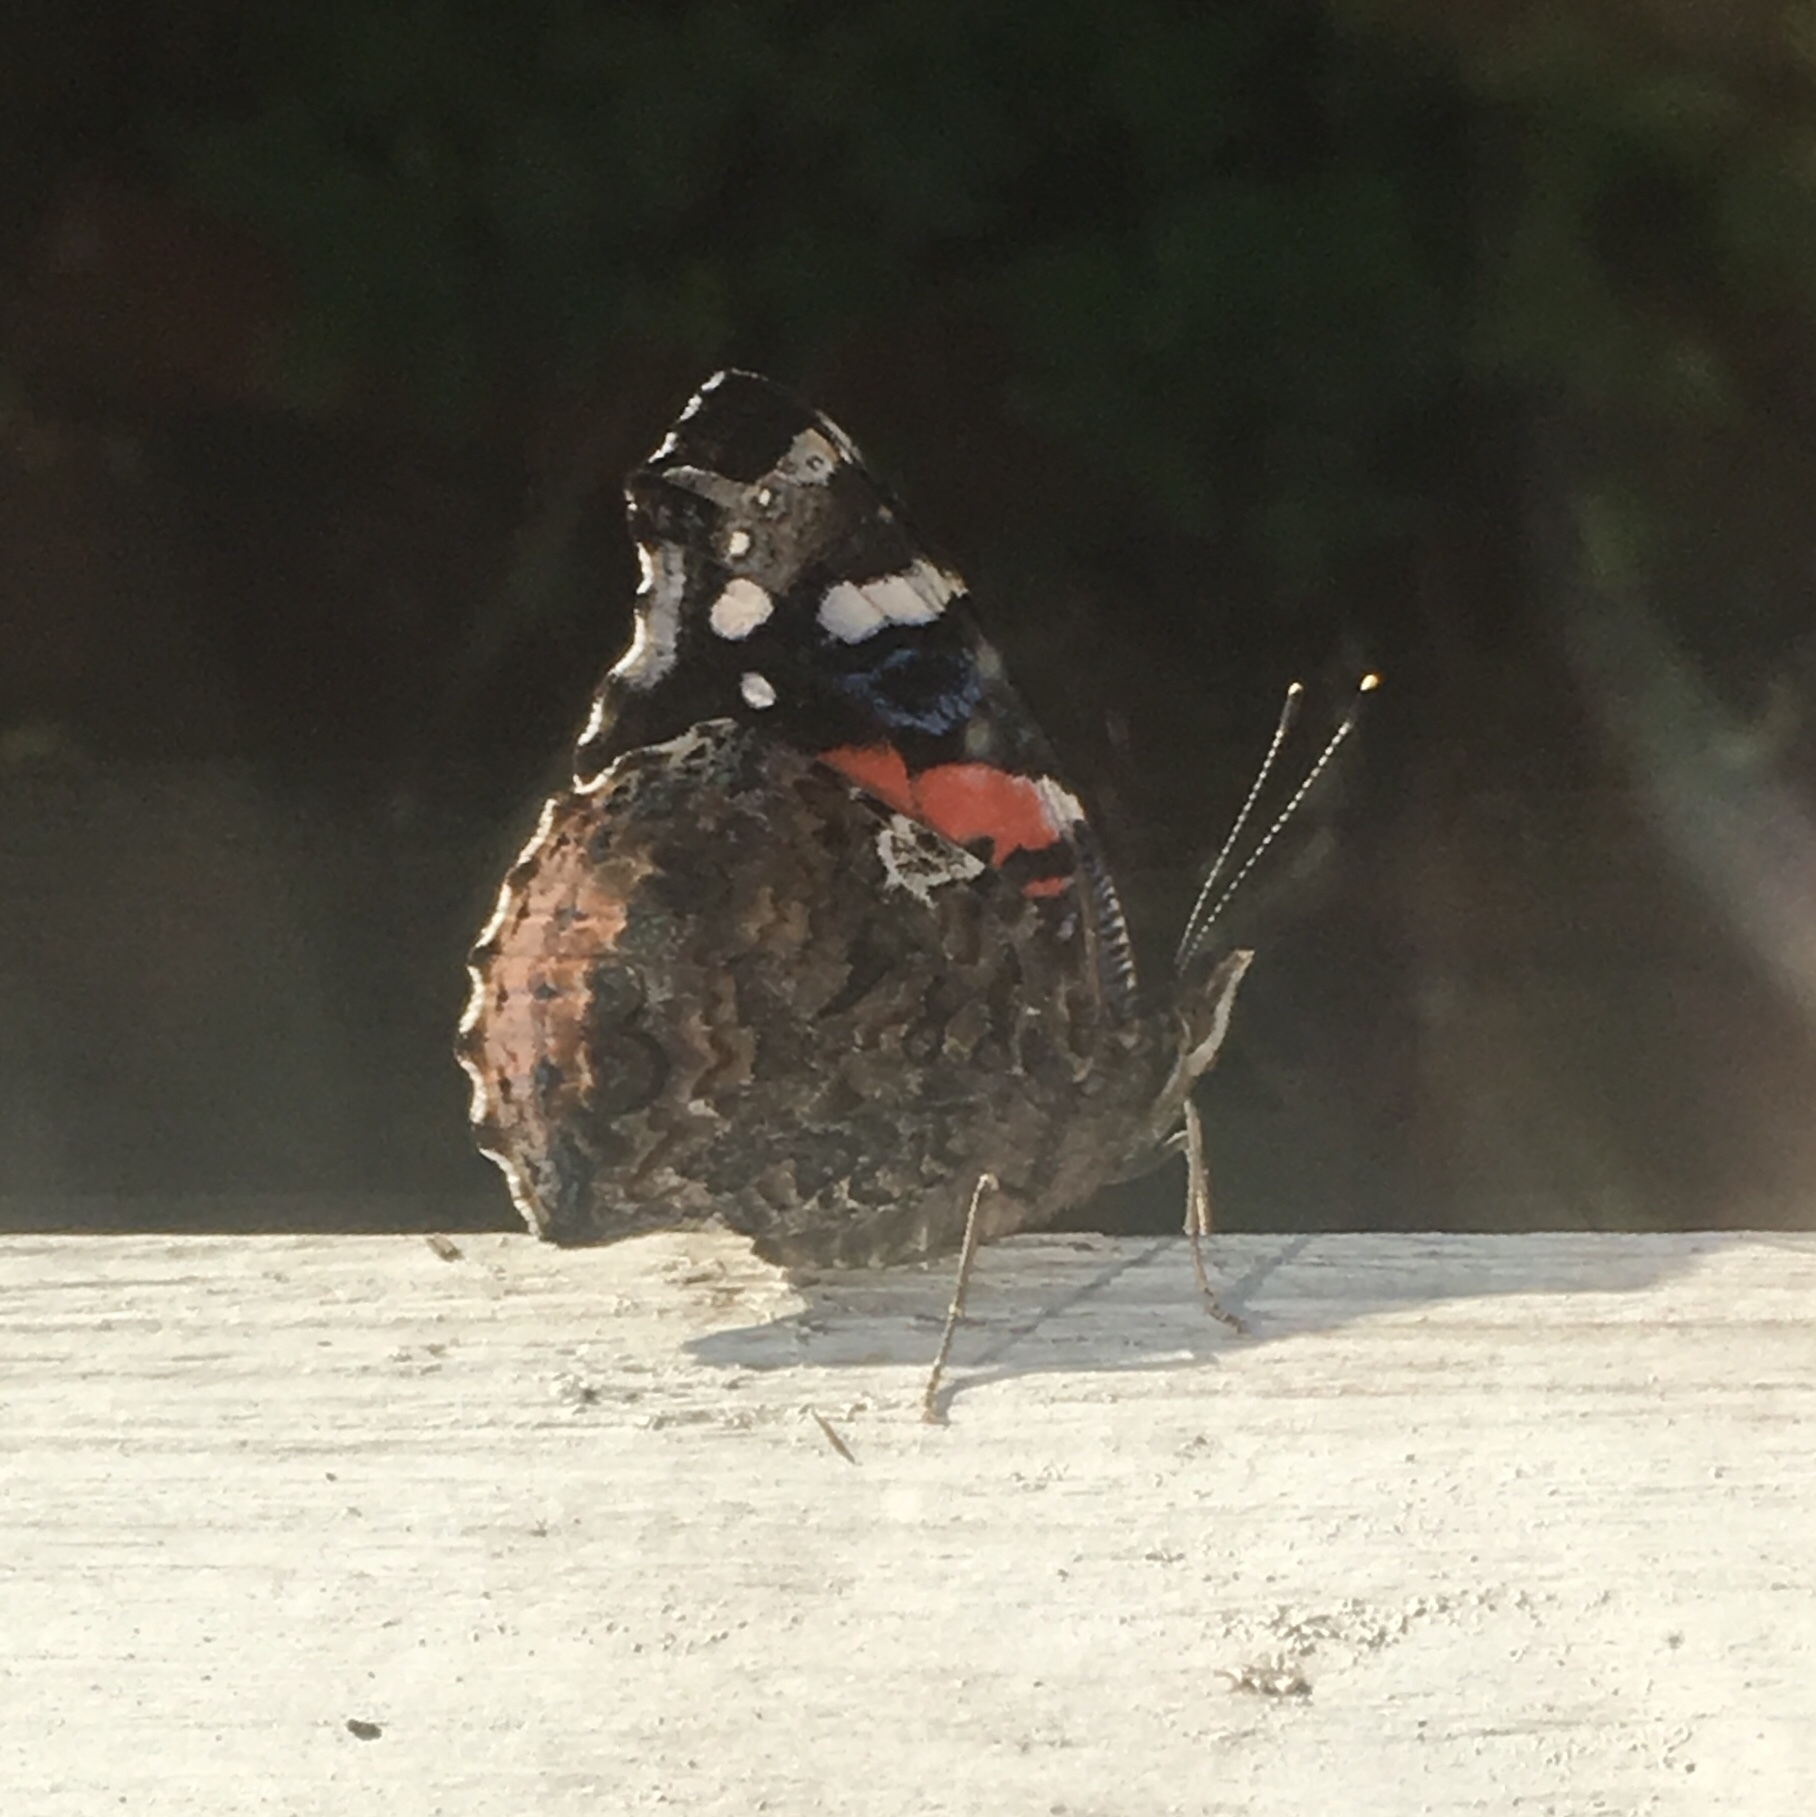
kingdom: Animalia
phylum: Arthropoda
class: Insecta
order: Lepidoptera
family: Nymphalidae
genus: Vanessa
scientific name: Vanessa atalanta
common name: Red admiral
